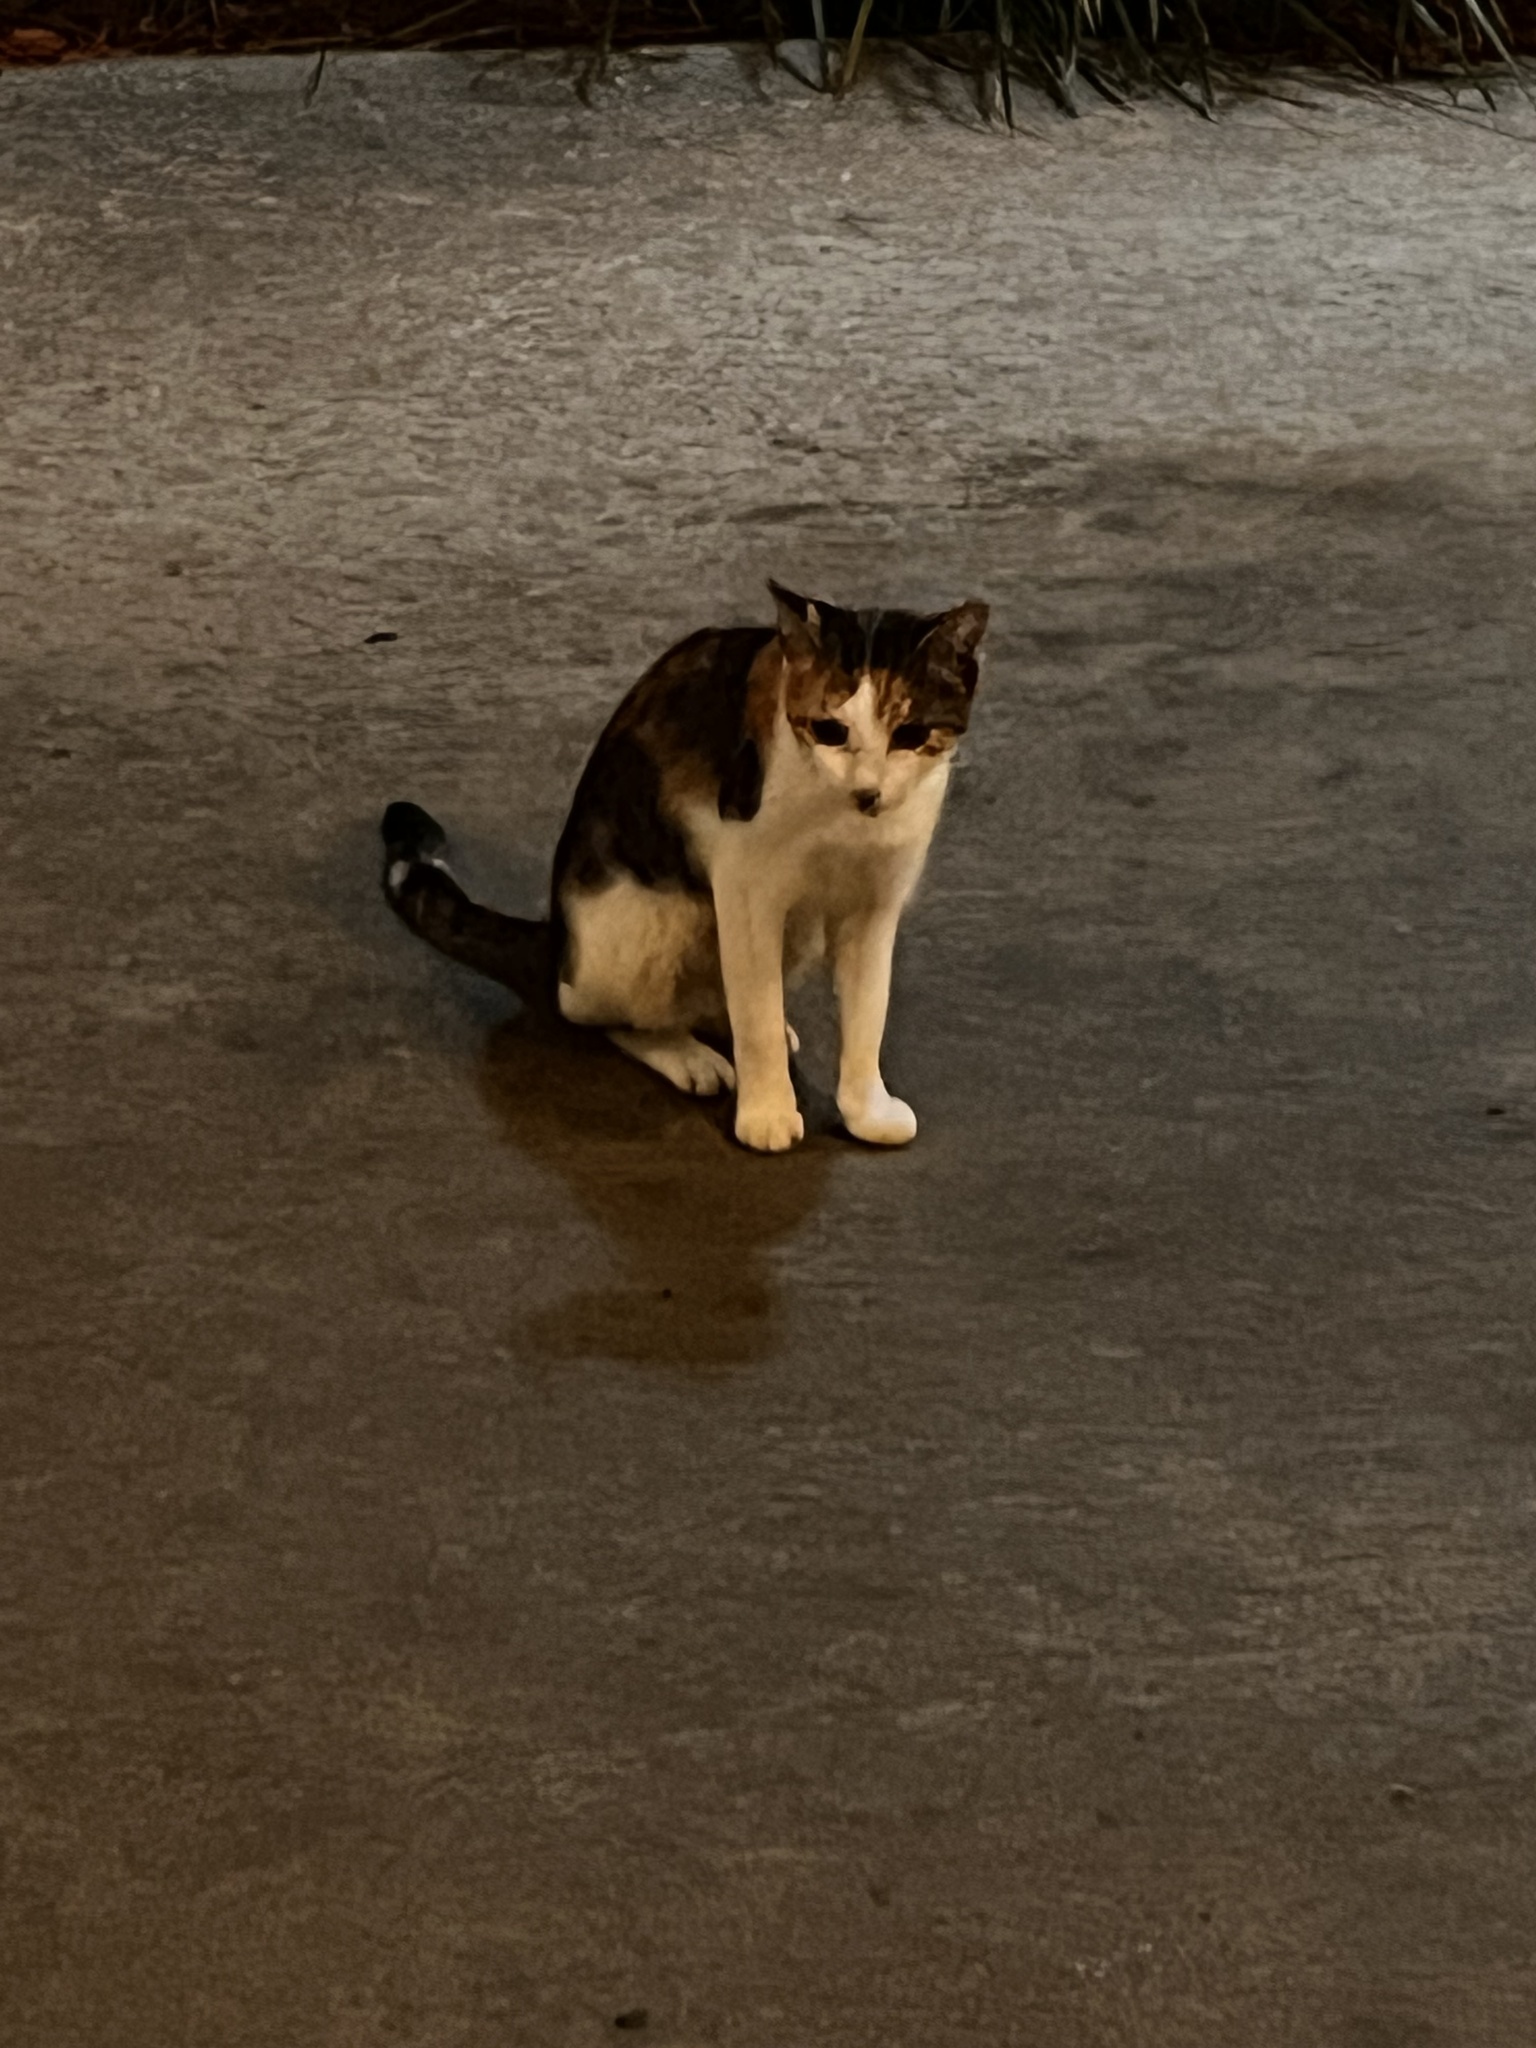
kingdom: Animalia
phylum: Chordata
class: Mammalia
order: Carnivora
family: Felidae
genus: Felis
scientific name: Felis catus
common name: Domestic cat
